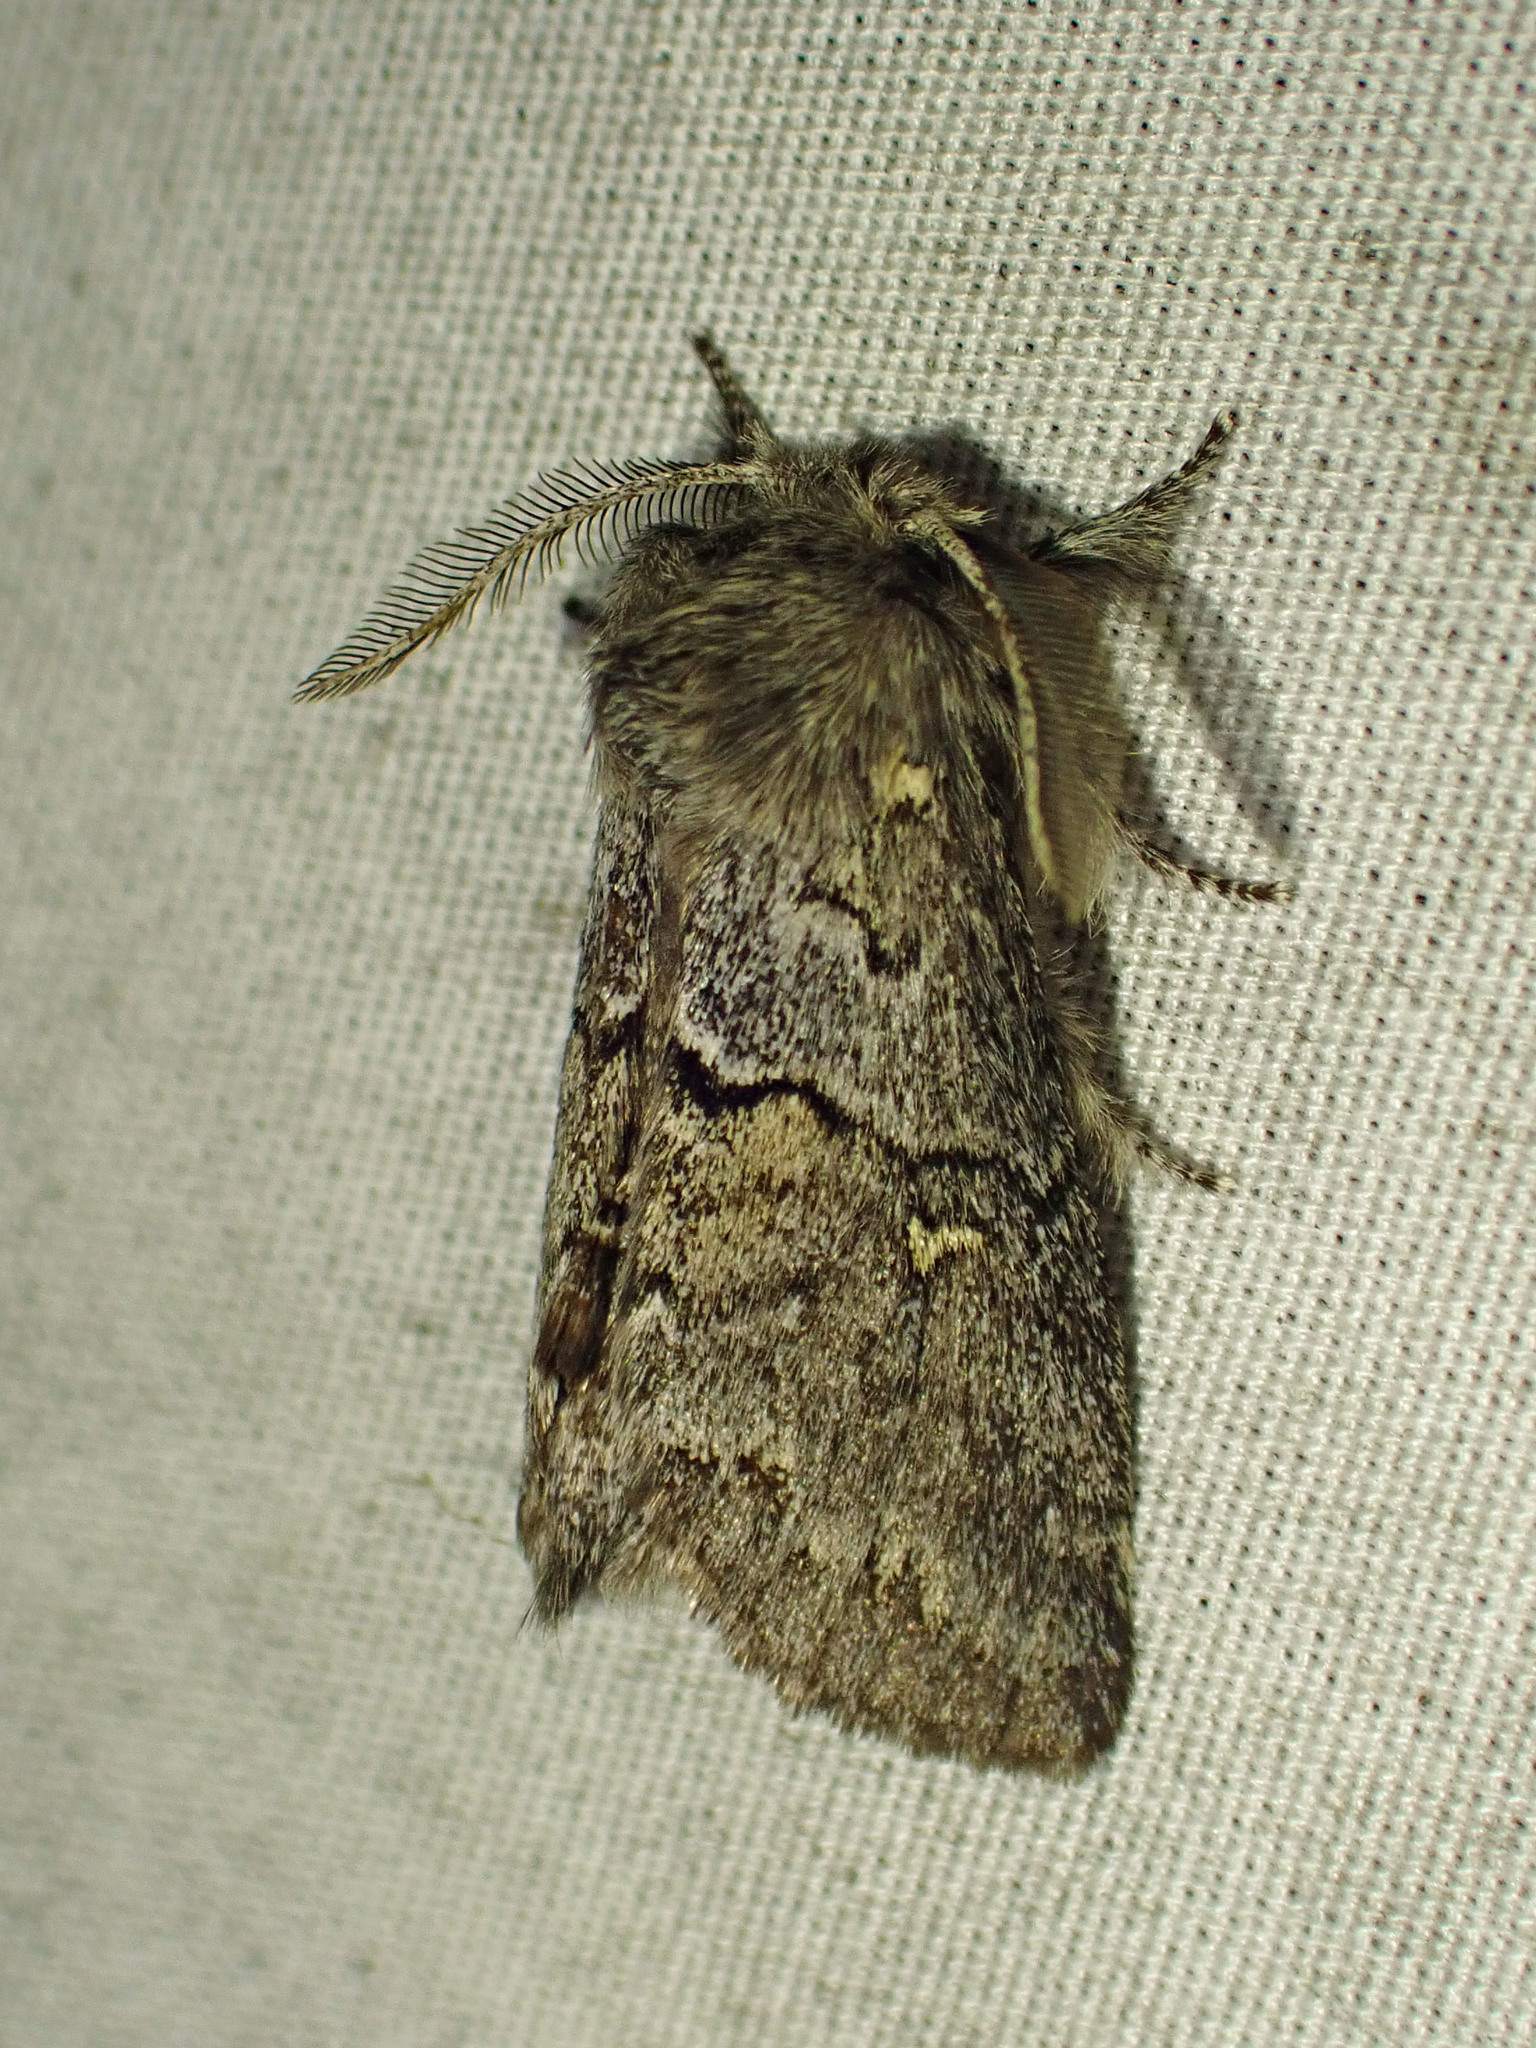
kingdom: Animalia
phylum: Arthropoda
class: Insecta
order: Lepidoptera
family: Notodontidae
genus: Gluphisia
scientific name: Gluphisia avimacula
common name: Four-spotted gluphisia moth
